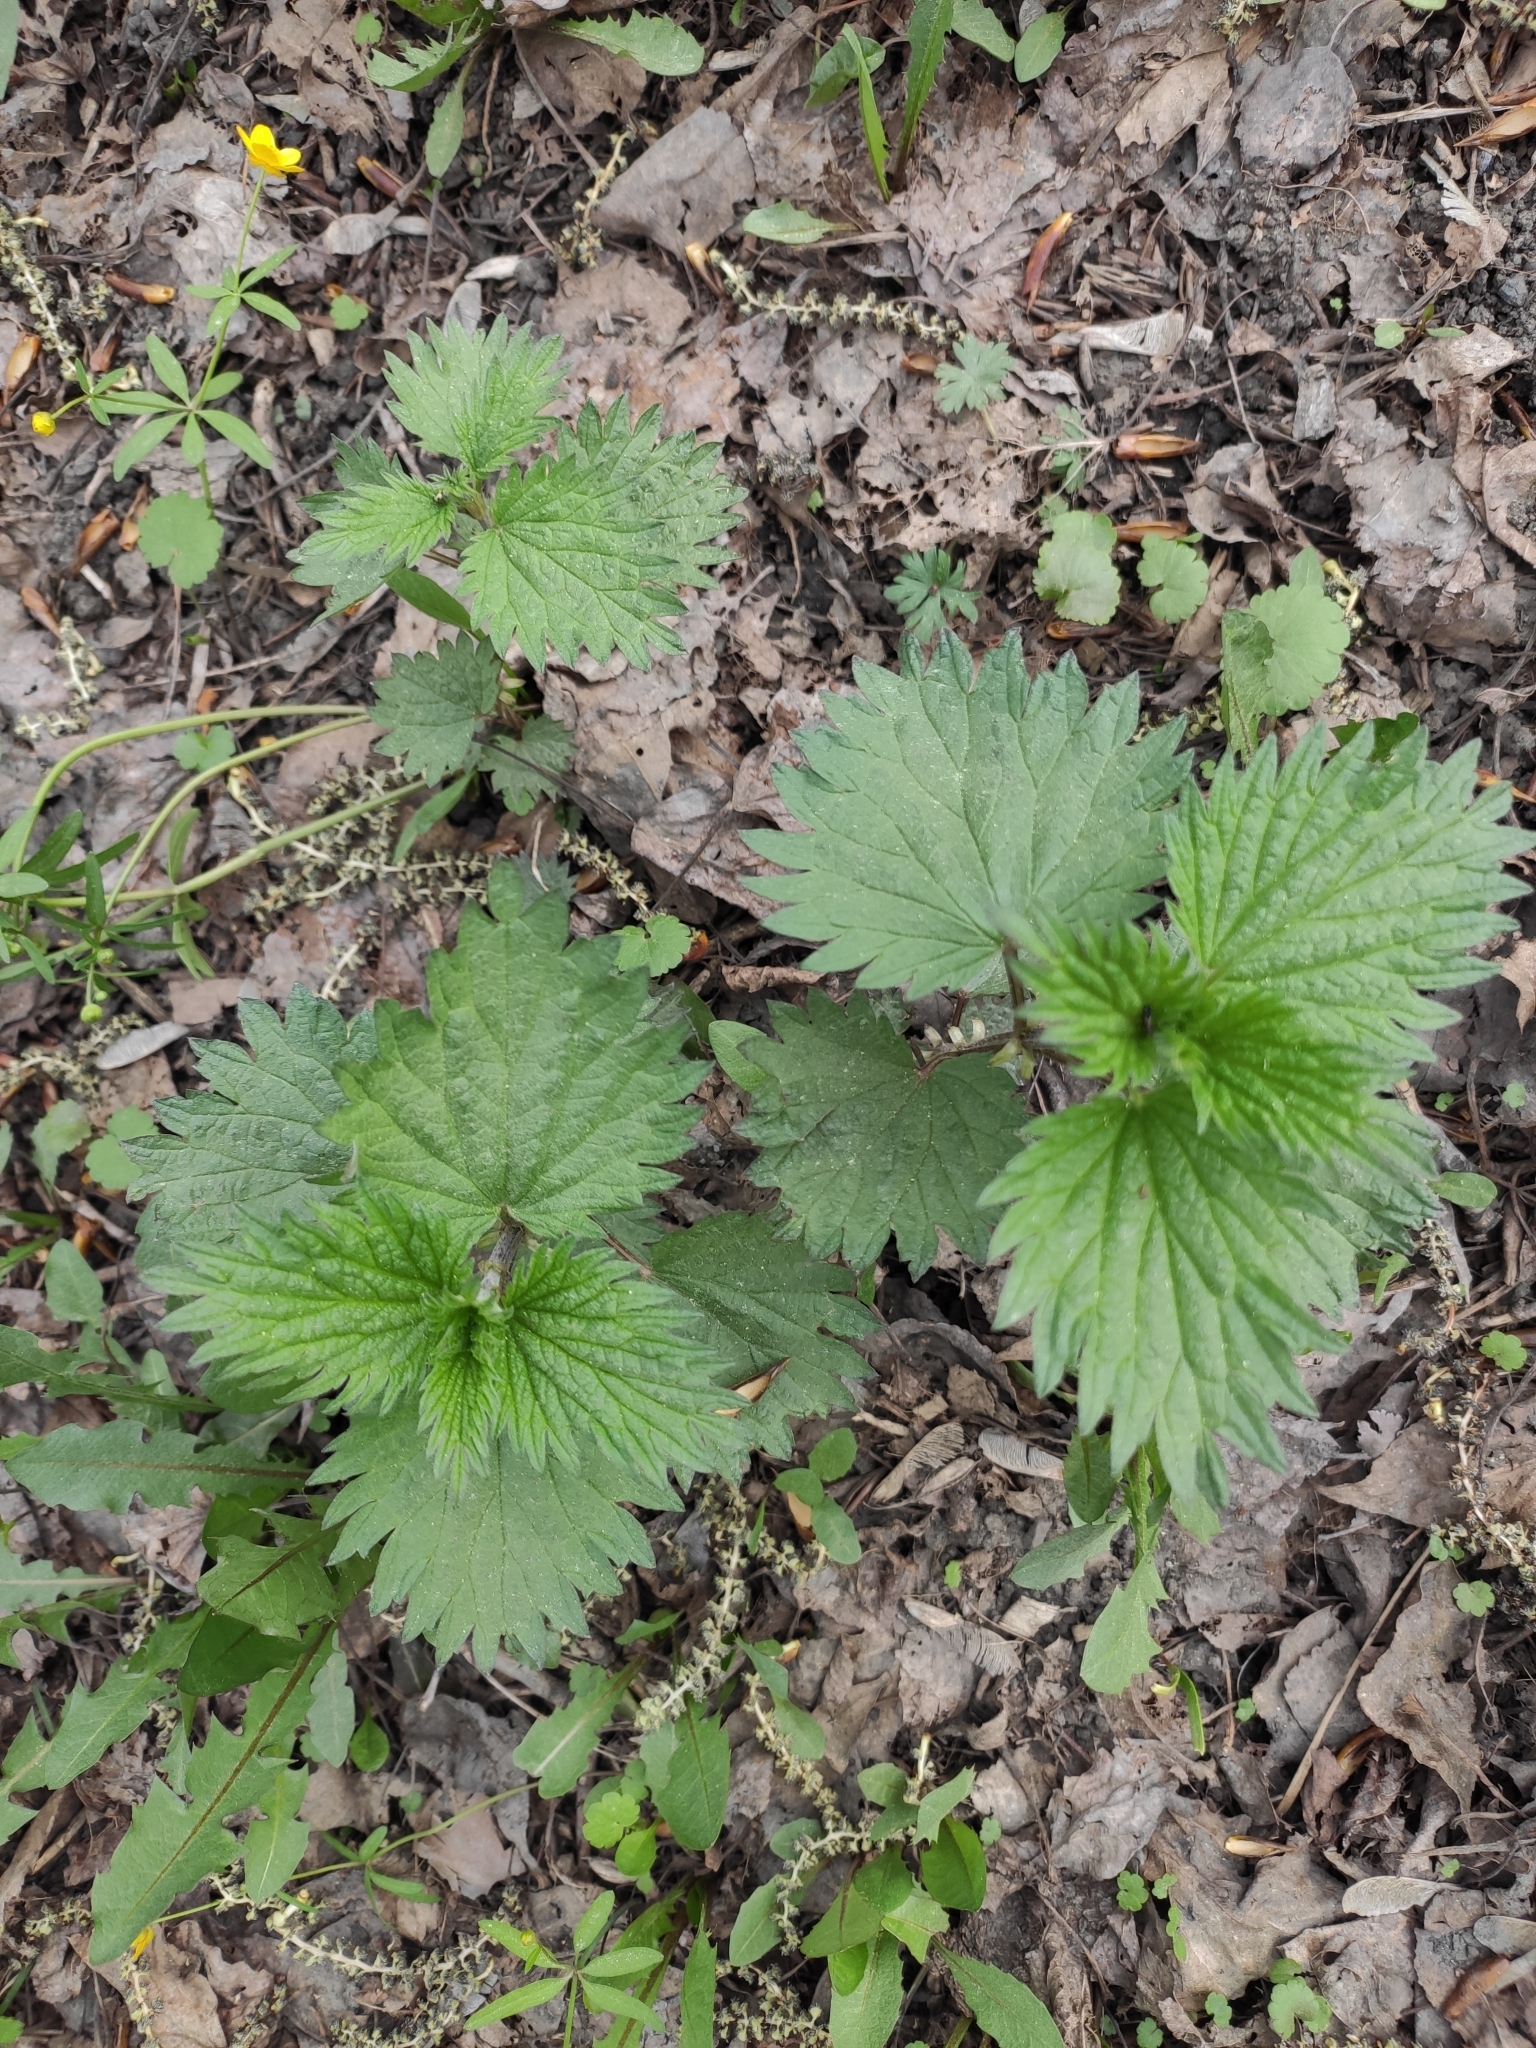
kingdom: Plantae
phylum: Tracheophyta
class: Magnoliopsida
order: Rosales
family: Urticaceae
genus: Urtica
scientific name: Urtica dioica
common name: Common nettle
